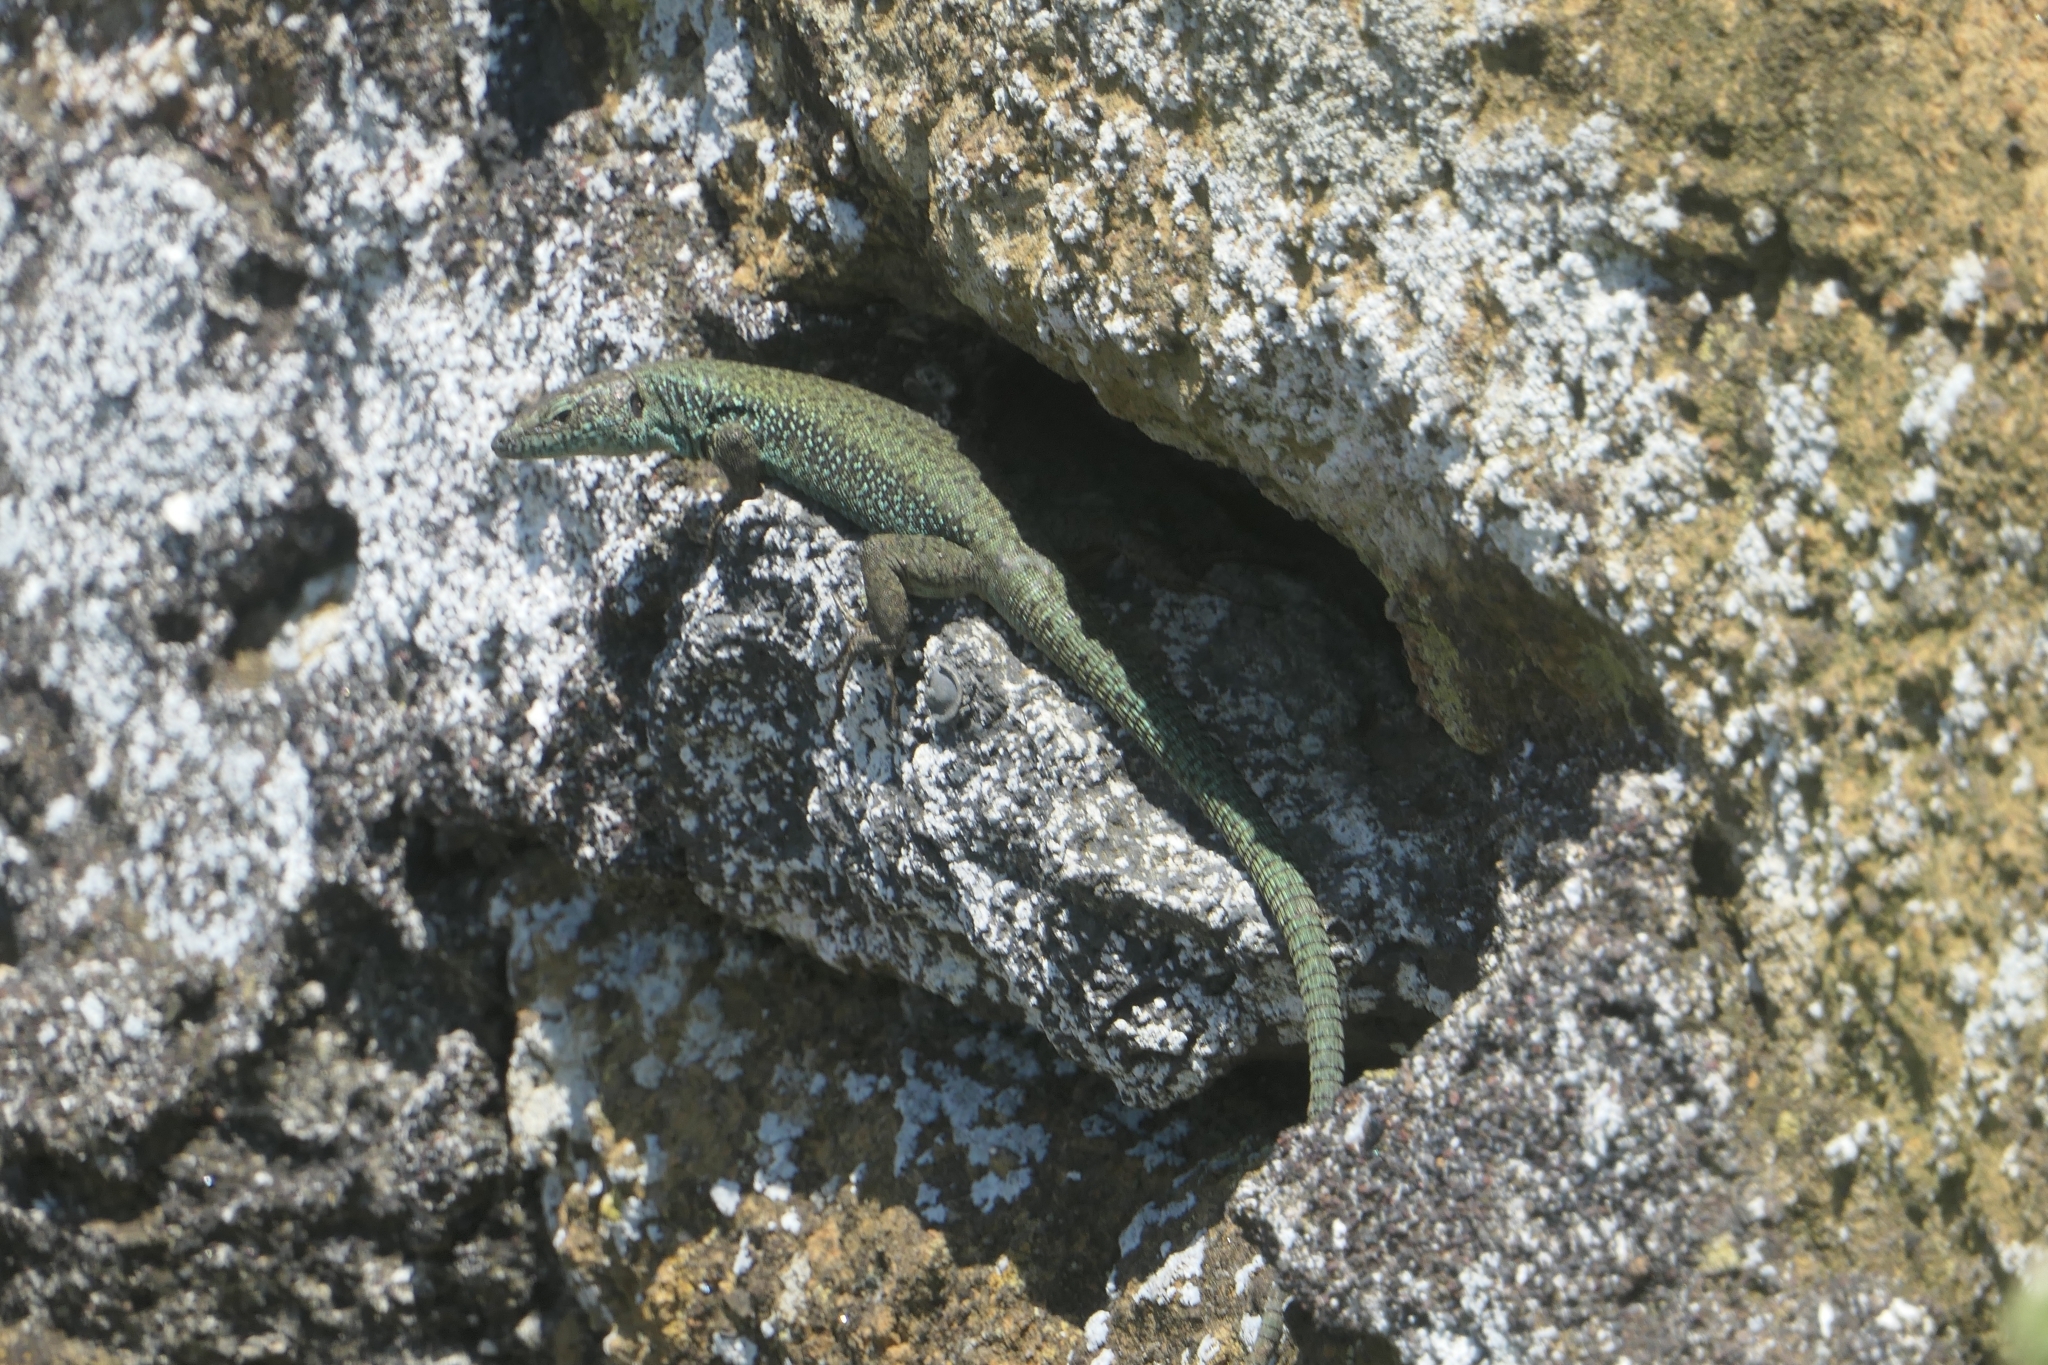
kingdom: Animalia
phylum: Chordata
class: Squamata
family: Lacertidae
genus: Teira
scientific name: Teira dugesii
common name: Madeira lizard
